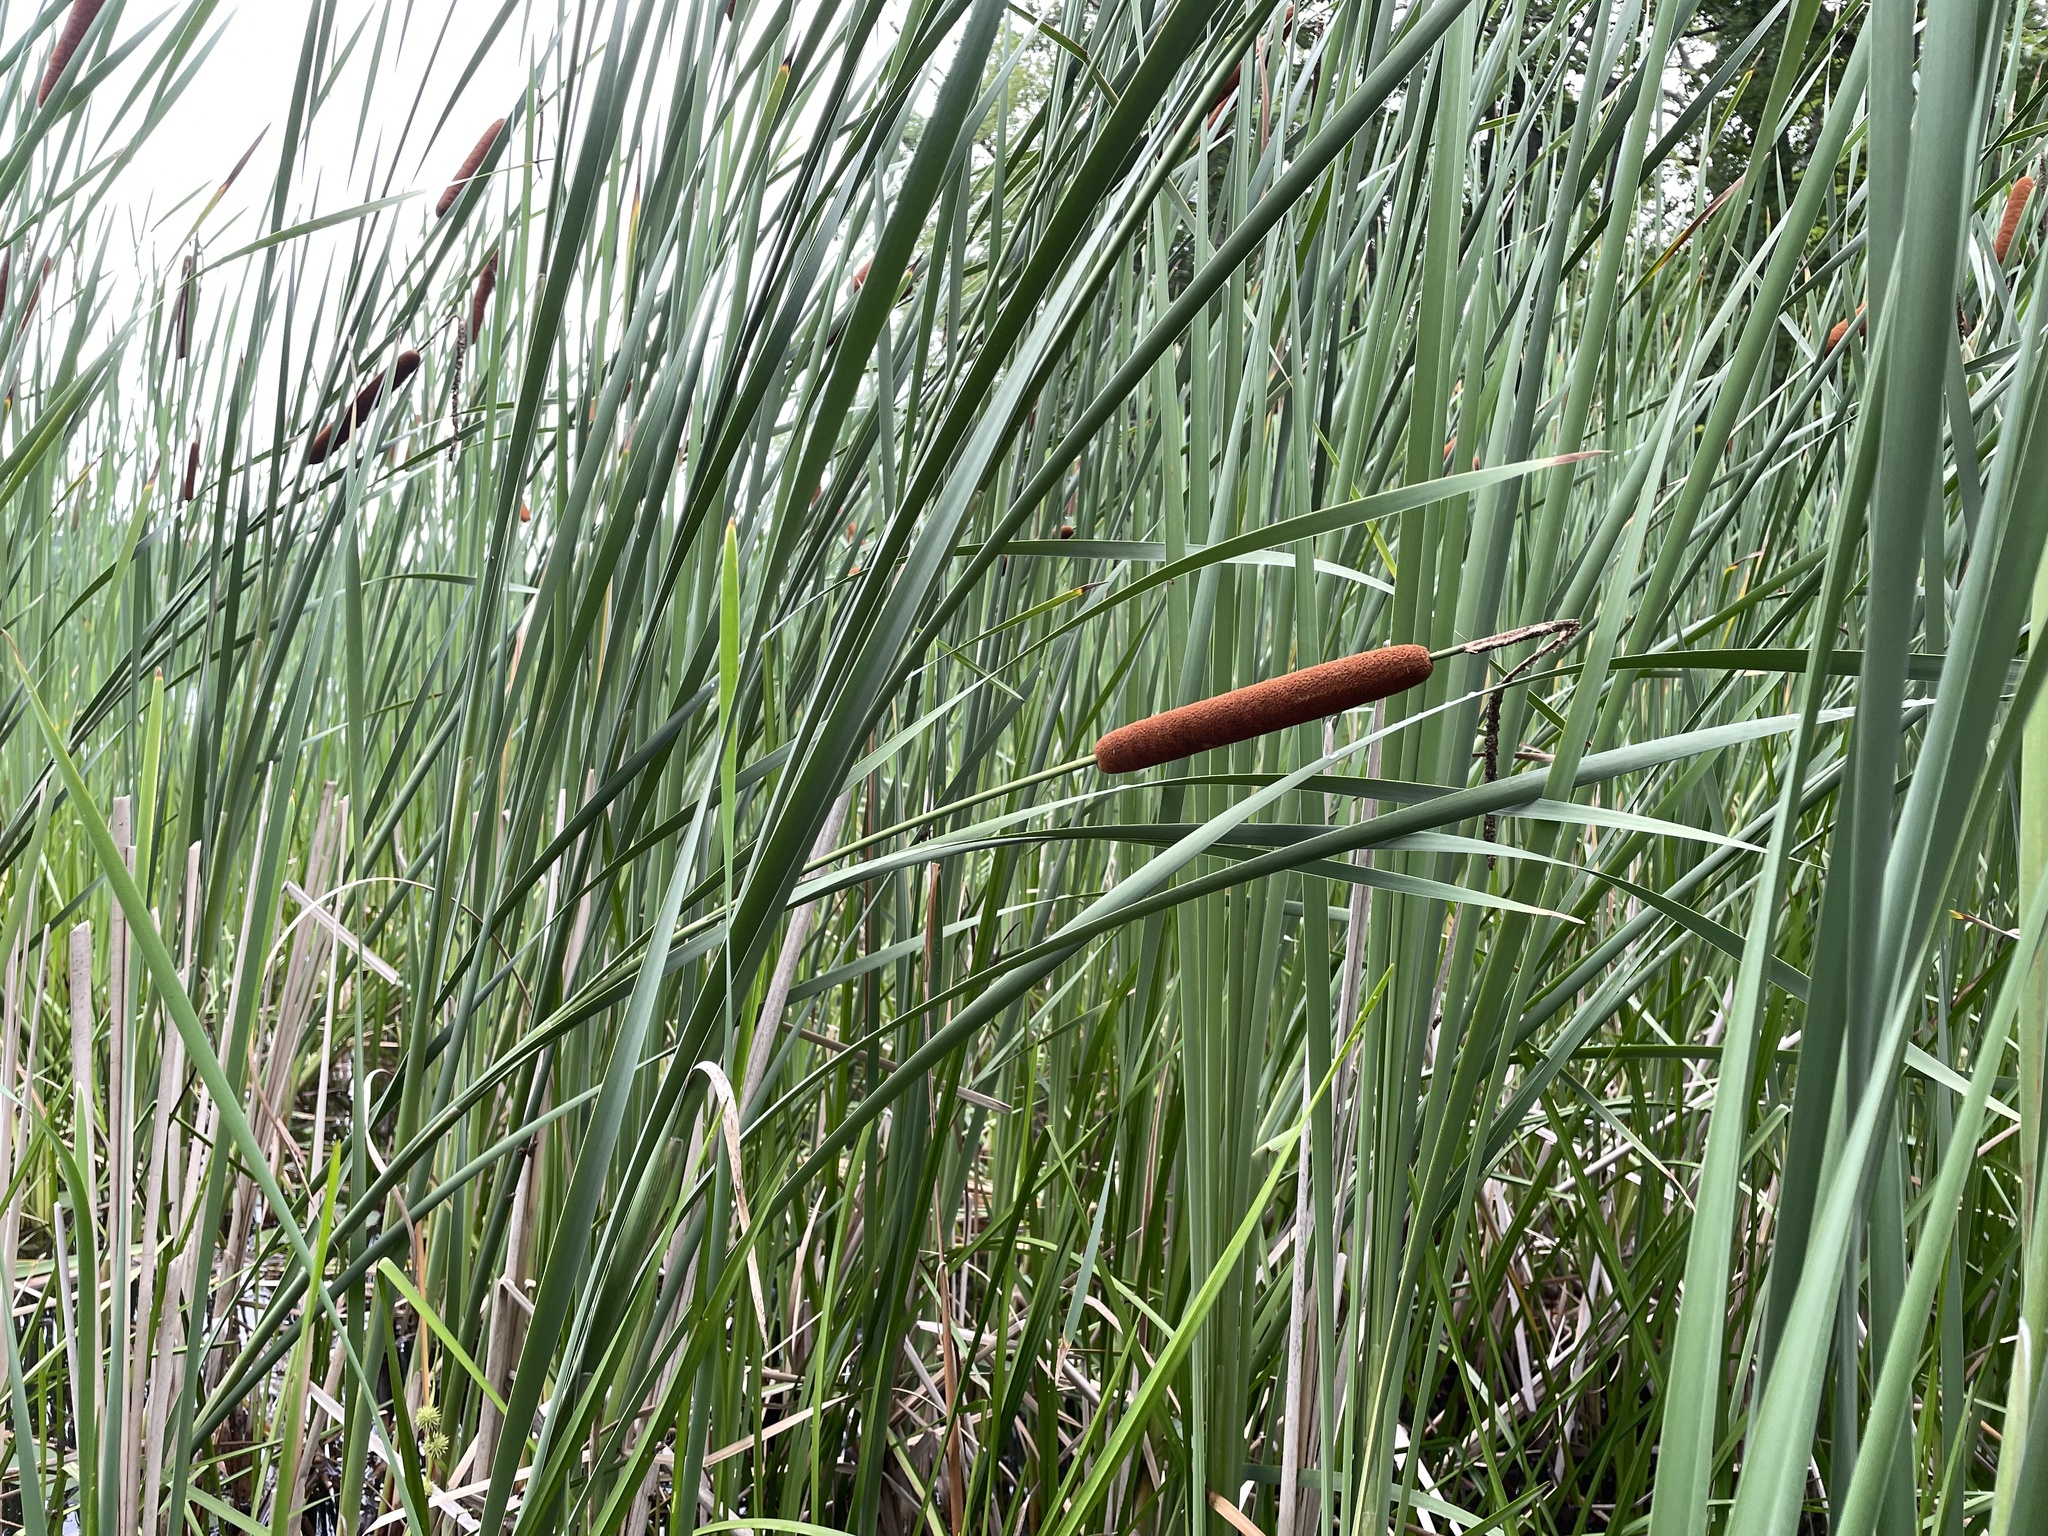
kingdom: Plantae
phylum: Tracheophyta
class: Liliopsida
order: Poales
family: Typhaceae
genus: Typha
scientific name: Typha angustifolia
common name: Lesser bulrush
